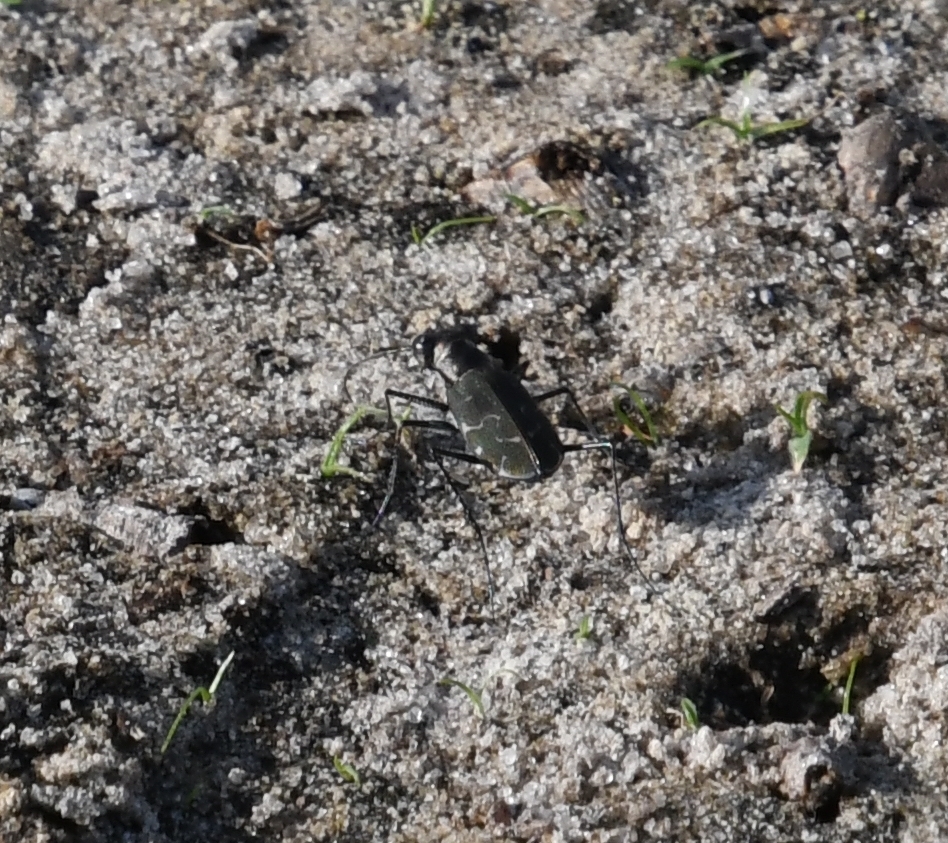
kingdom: Animalia
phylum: Arthropoda
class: Insecta
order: Coleoptera
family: Carabidae
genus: Cicindela
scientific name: Cicindela trifasciata
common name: Mudflat tiger beetle
